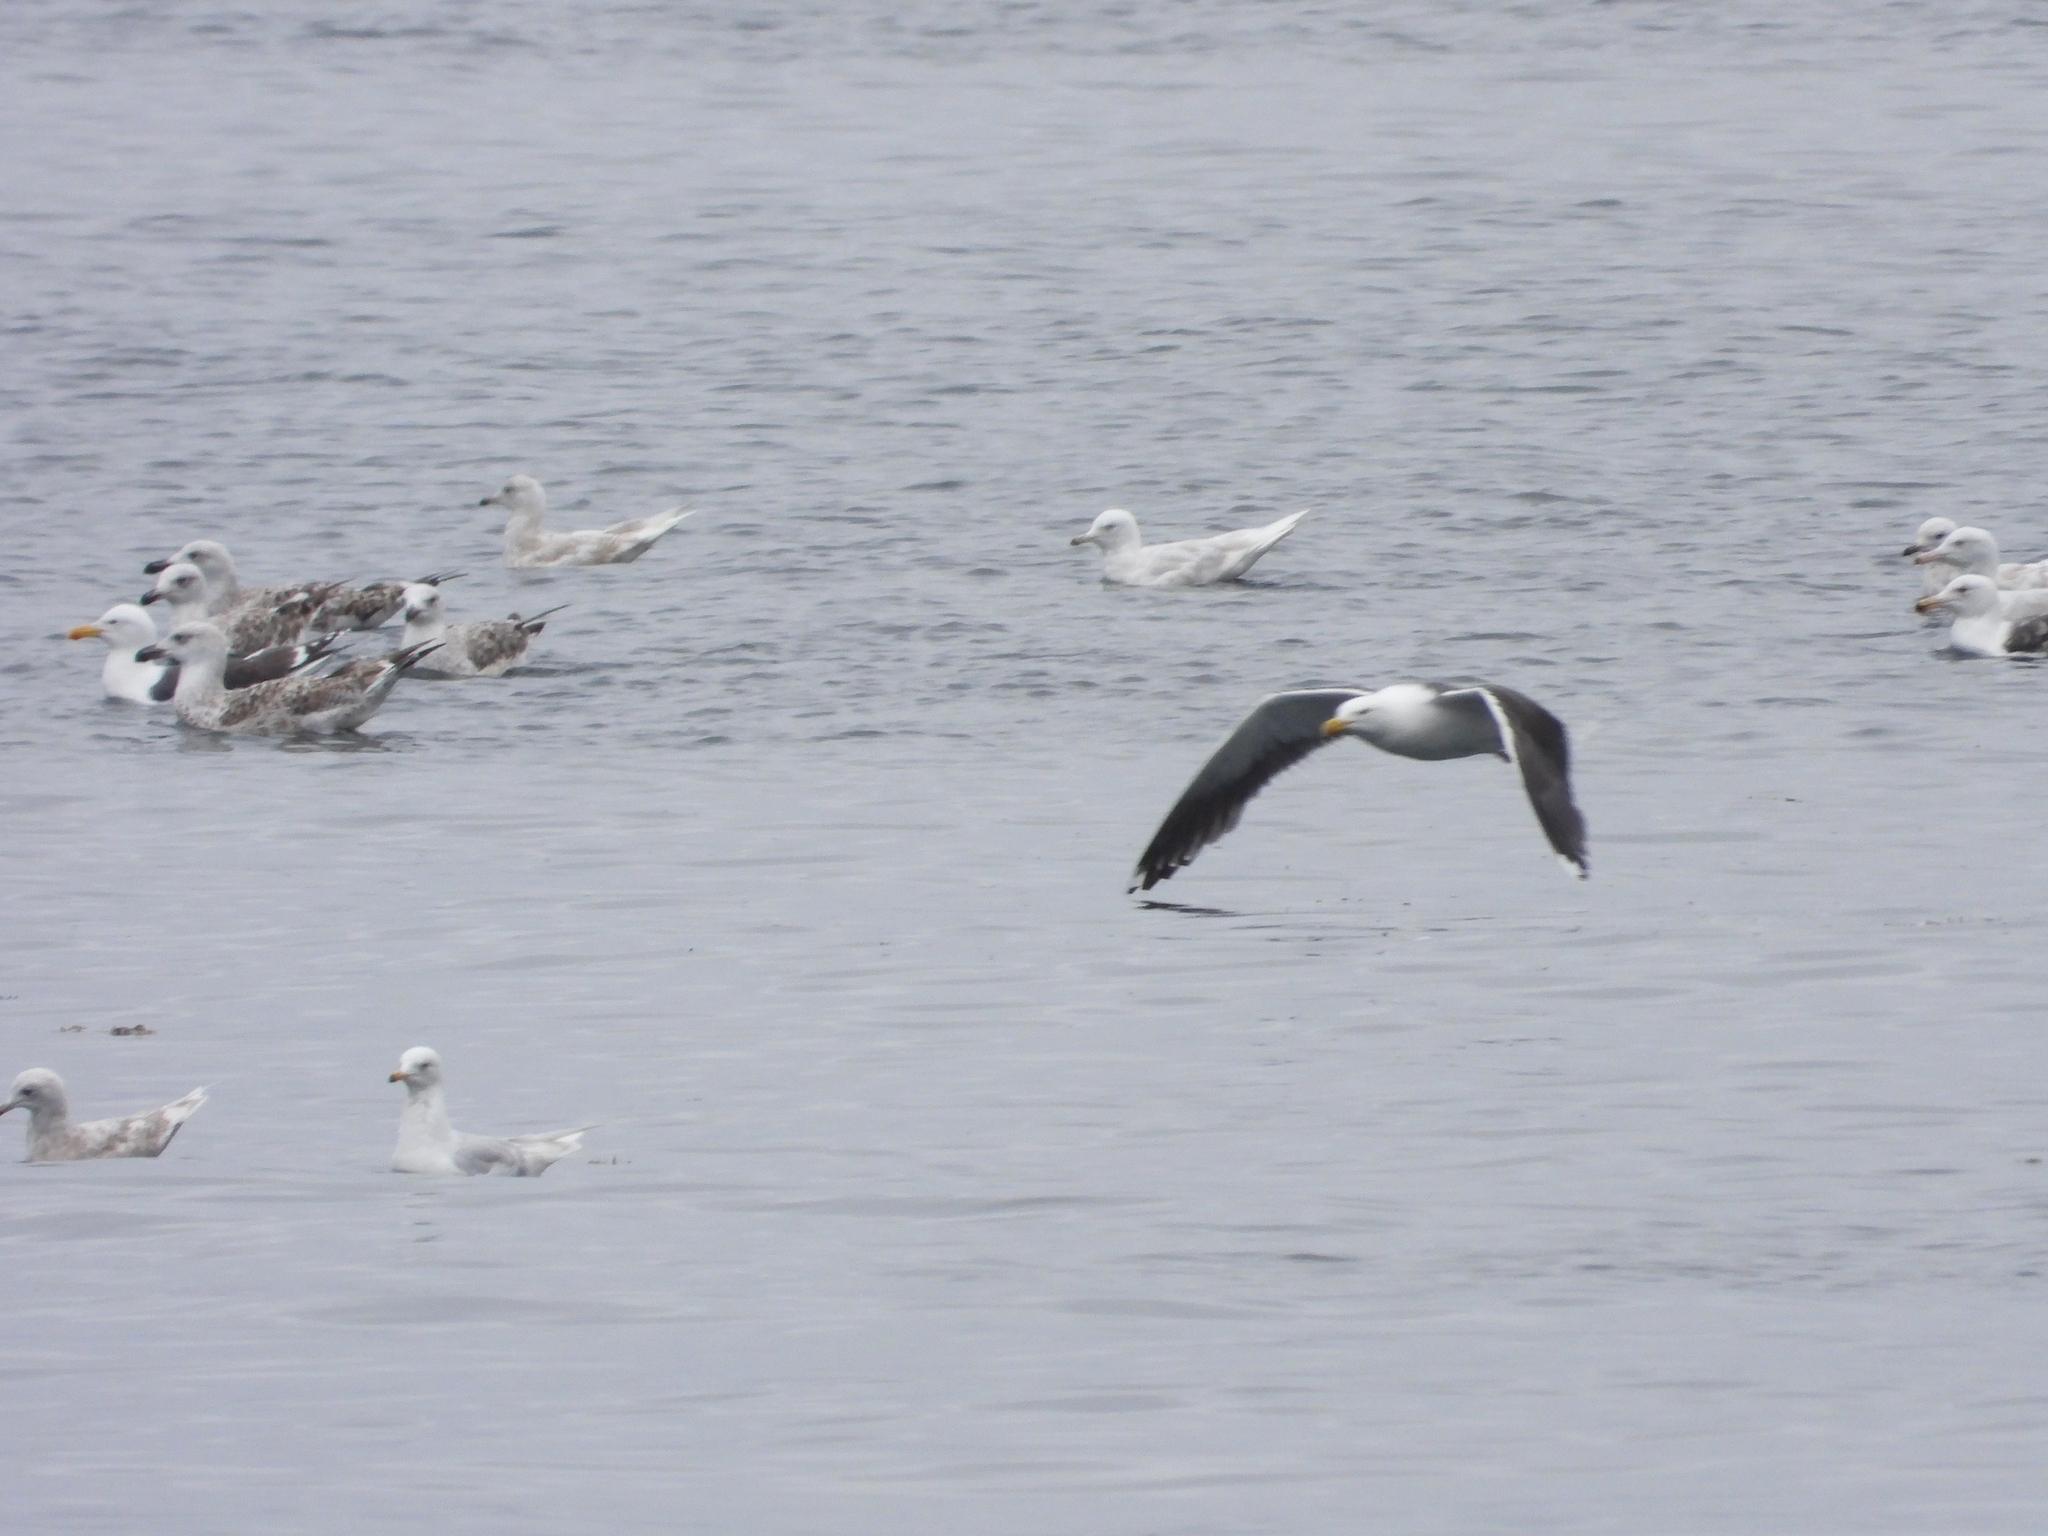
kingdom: Animalia
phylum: Chordata
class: Aves
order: Charadriiformes
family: Laridae
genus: Larus
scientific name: Larus marinus
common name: Great black-backed gull
